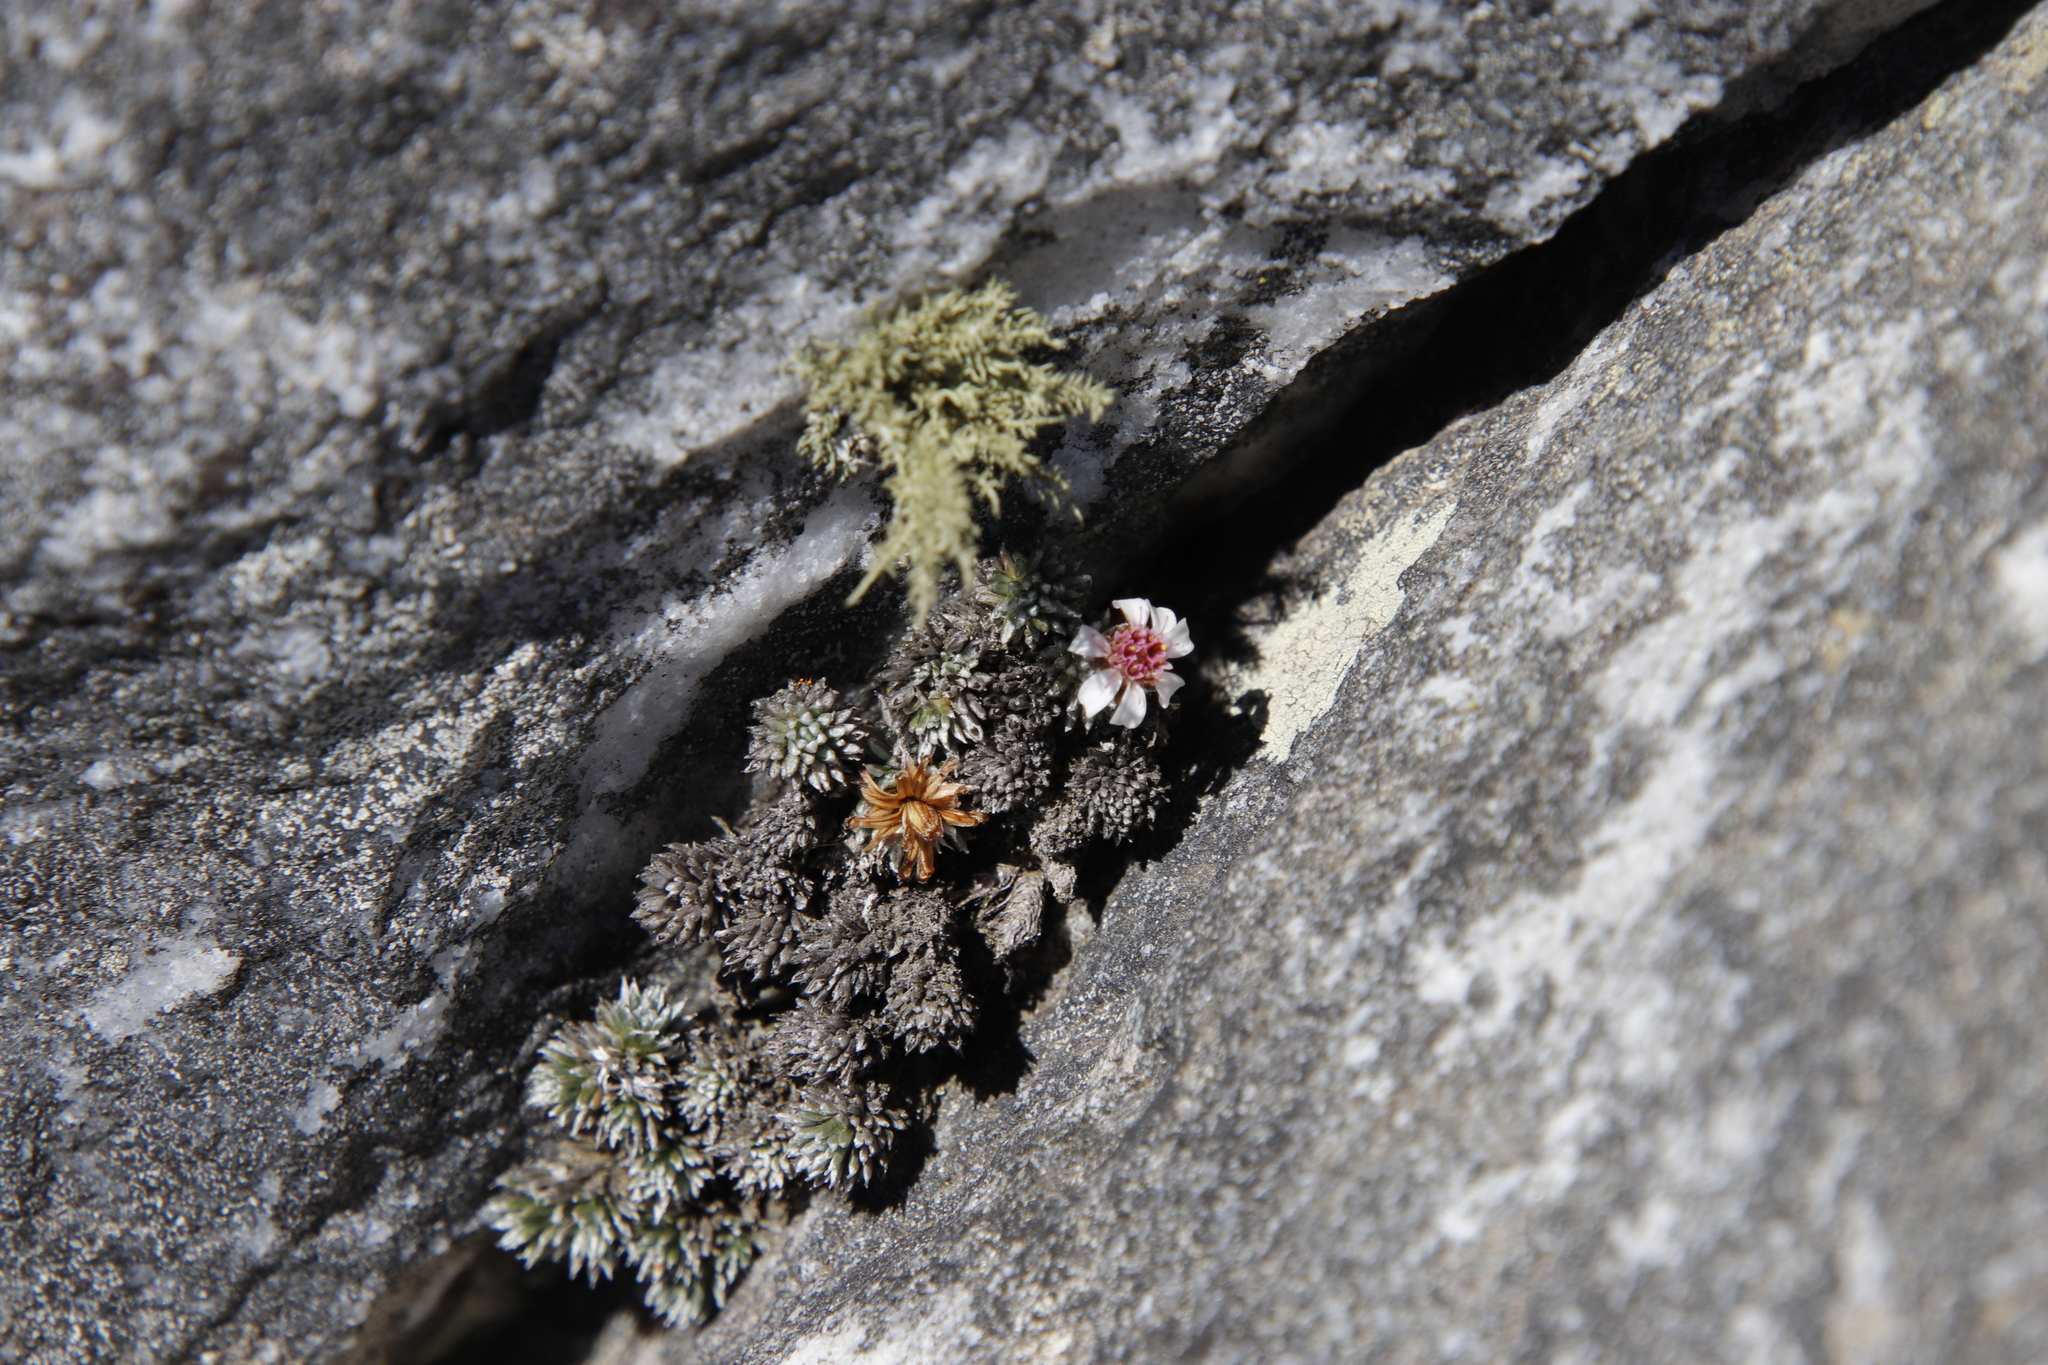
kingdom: Plantae
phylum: Tracheophyta
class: Magnoliopsida
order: Asterales
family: Asteraceae
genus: Muscosomorphe
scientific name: Muscosomorphe aretioides
